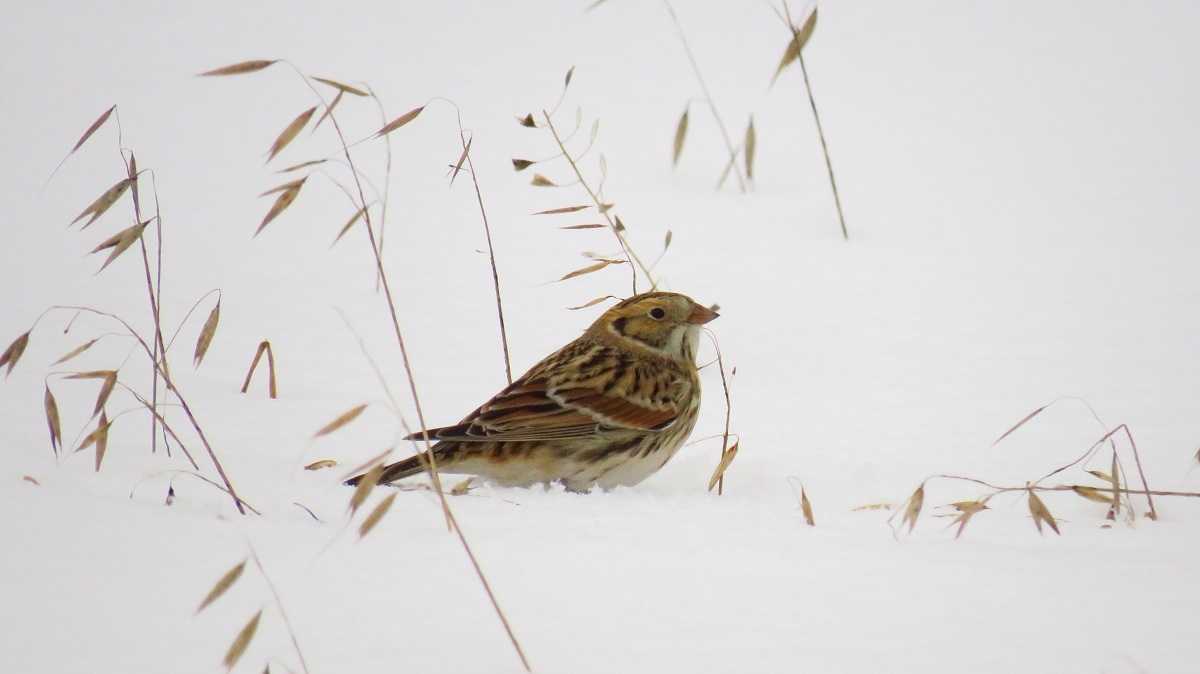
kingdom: Animalia
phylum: Chordata
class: Aves
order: Passeriformes
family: Calcariidae
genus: Calcarius
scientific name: Calcarius lapponicus
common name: Lapland longspur
